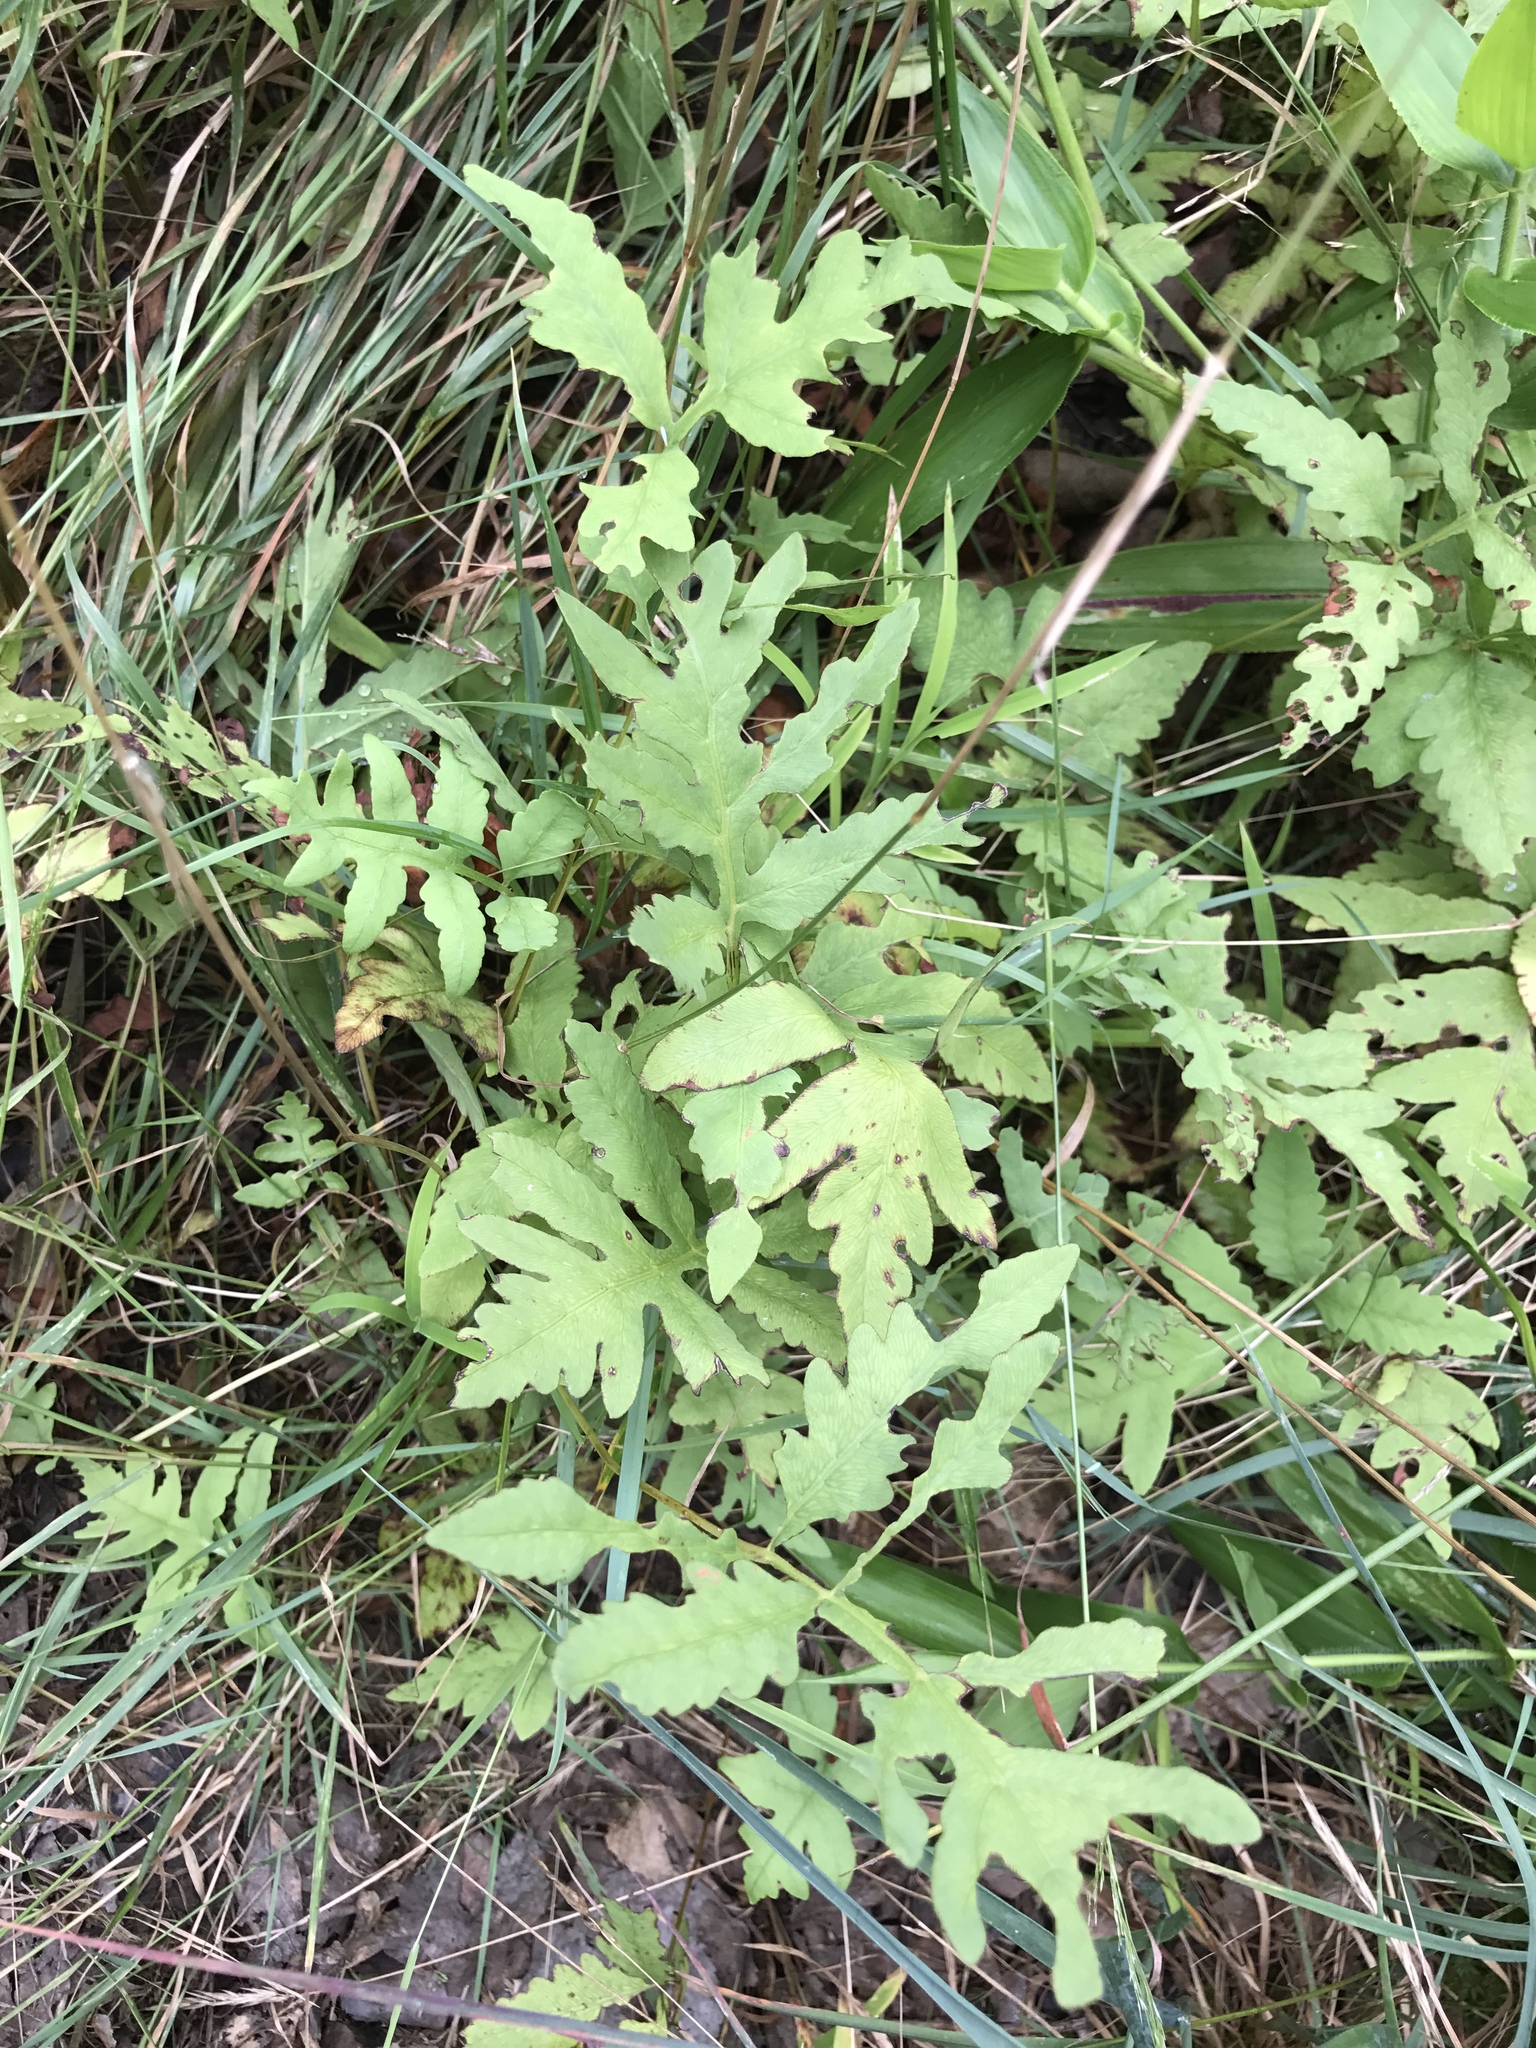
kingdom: Plantae
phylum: Tracheophyta
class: Polypodiopsida
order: Polypodiales
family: Onocleaceae
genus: Onoclea
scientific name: Onoclea sensibilis
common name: Sensitive fern
